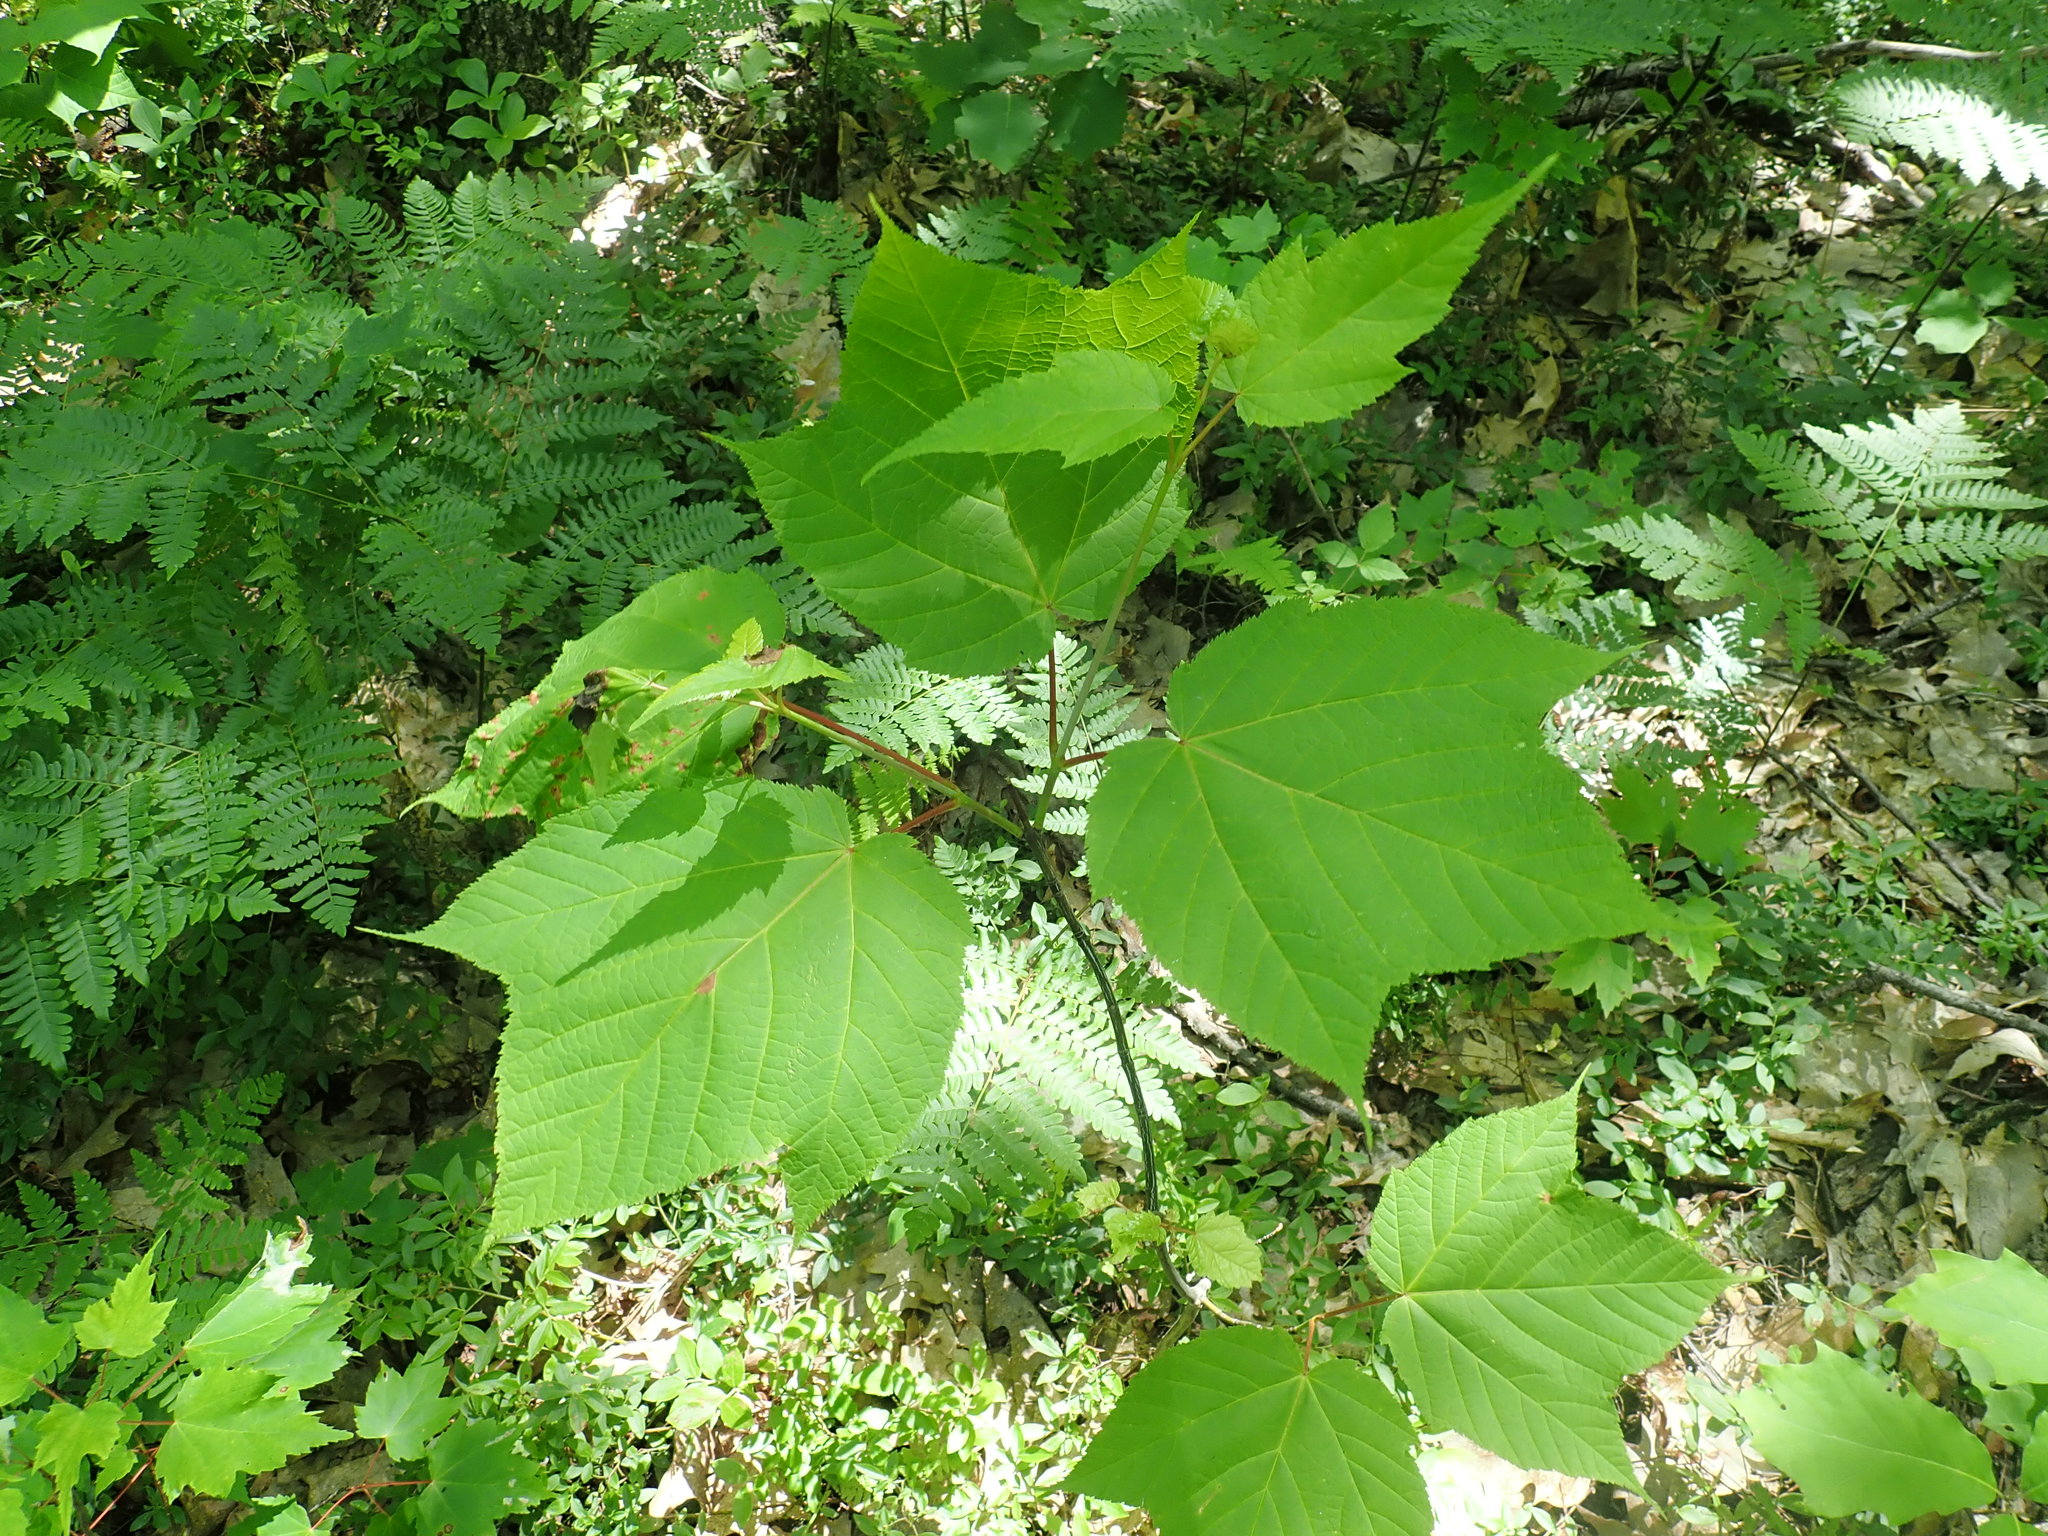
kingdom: Plantae
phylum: Tracheophyta
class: Magnoliopsida
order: Sapindales
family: Sapindaceae
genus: Acer
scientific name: Acer pensylvanicum
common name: Moosewood
